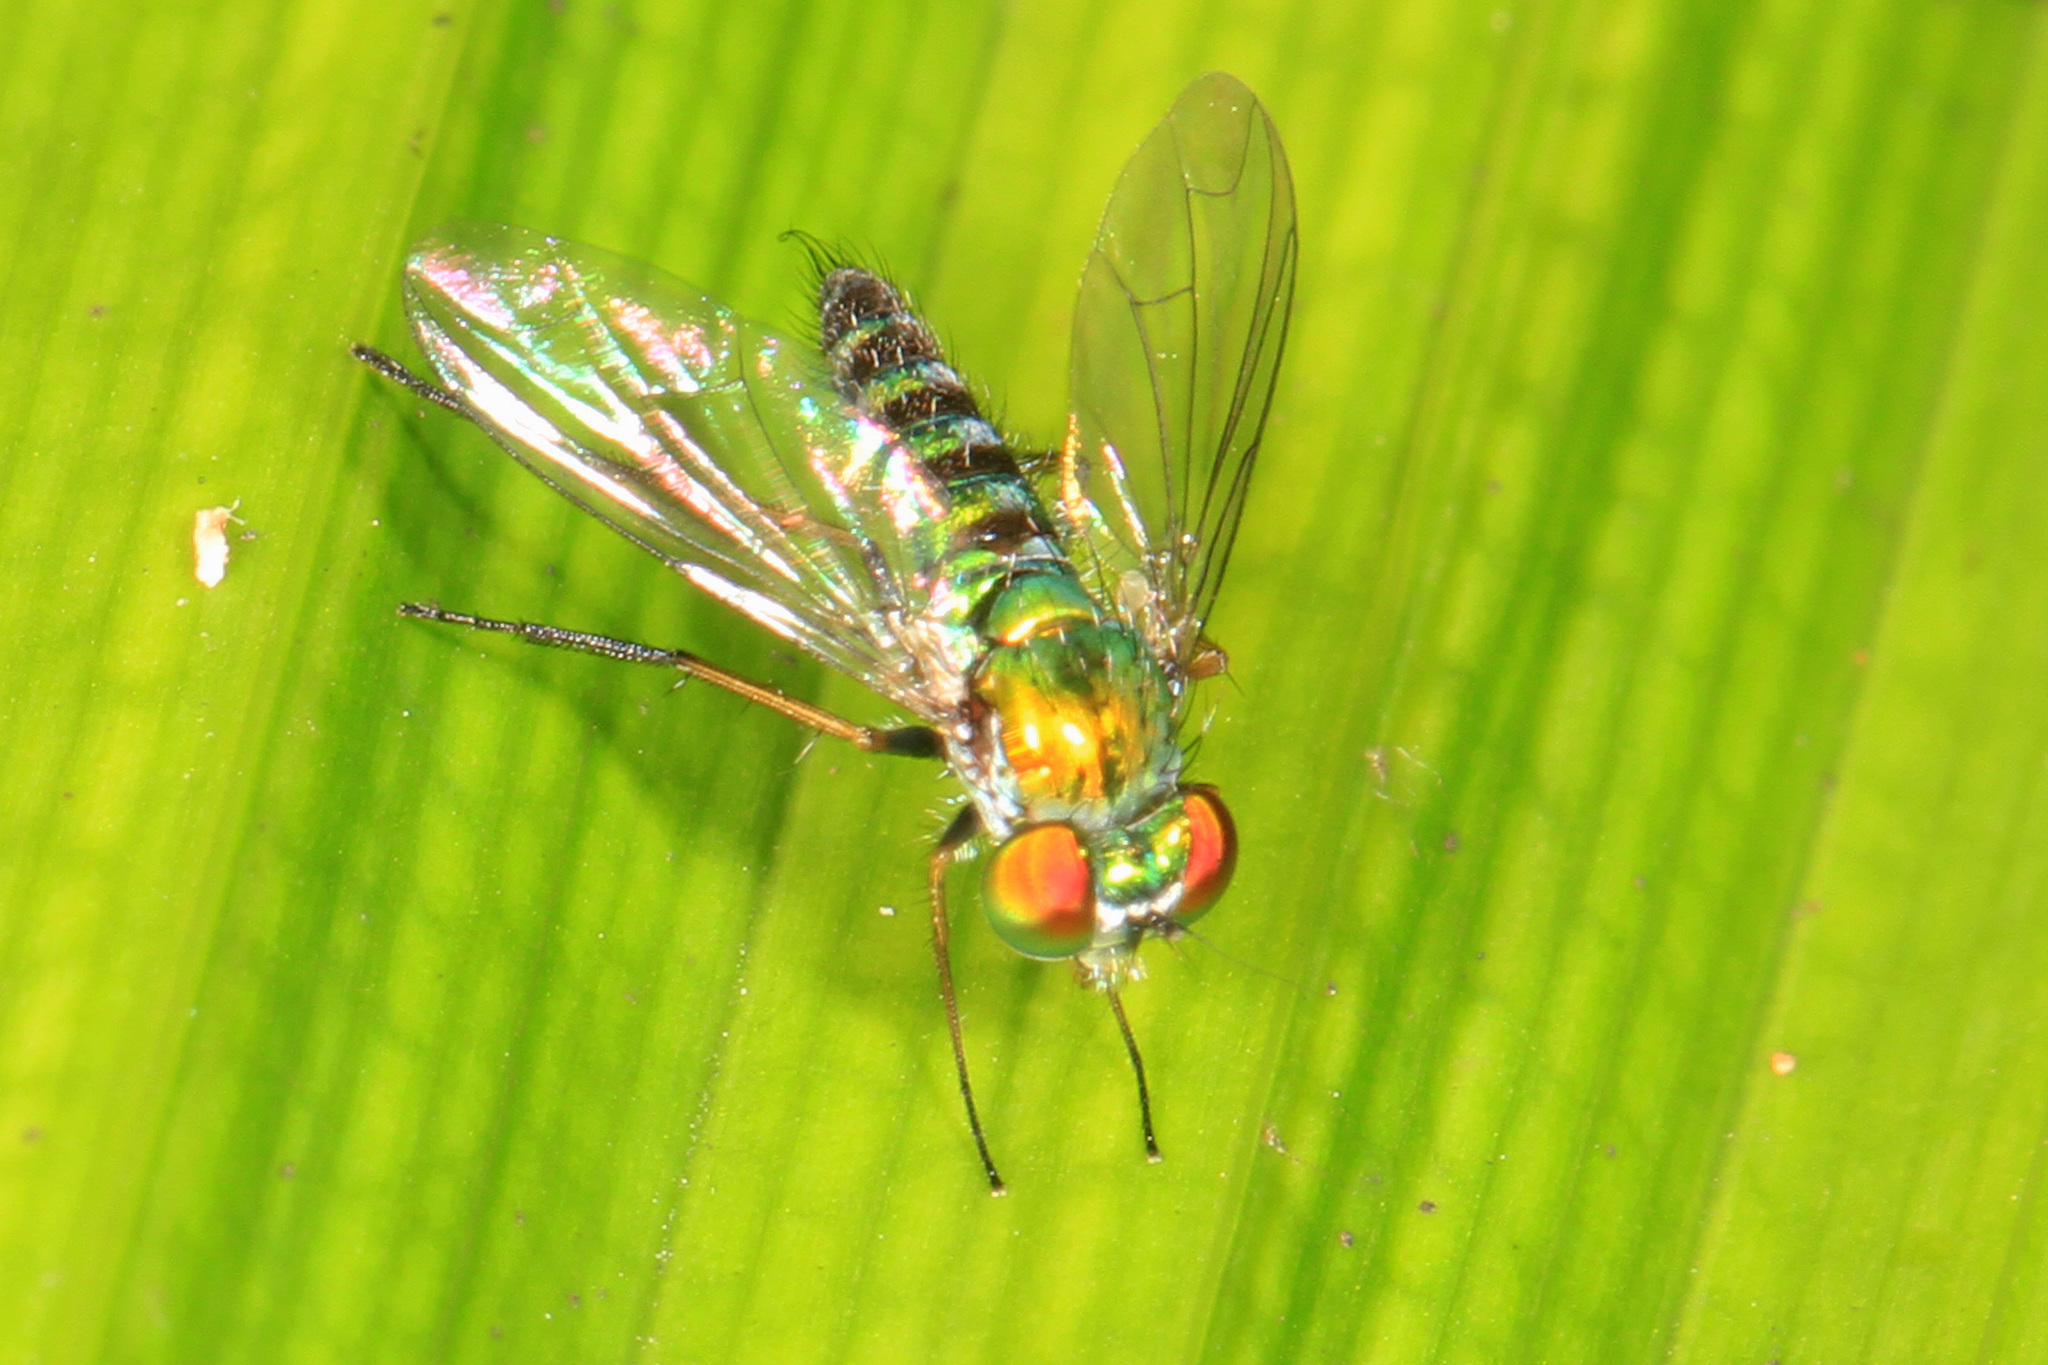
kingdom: Animalia
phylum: Arthropoda
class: Insecta
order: Diptera
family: Dolichopodidae
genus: Condylostylus
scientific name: Condylostylus graenicheri
